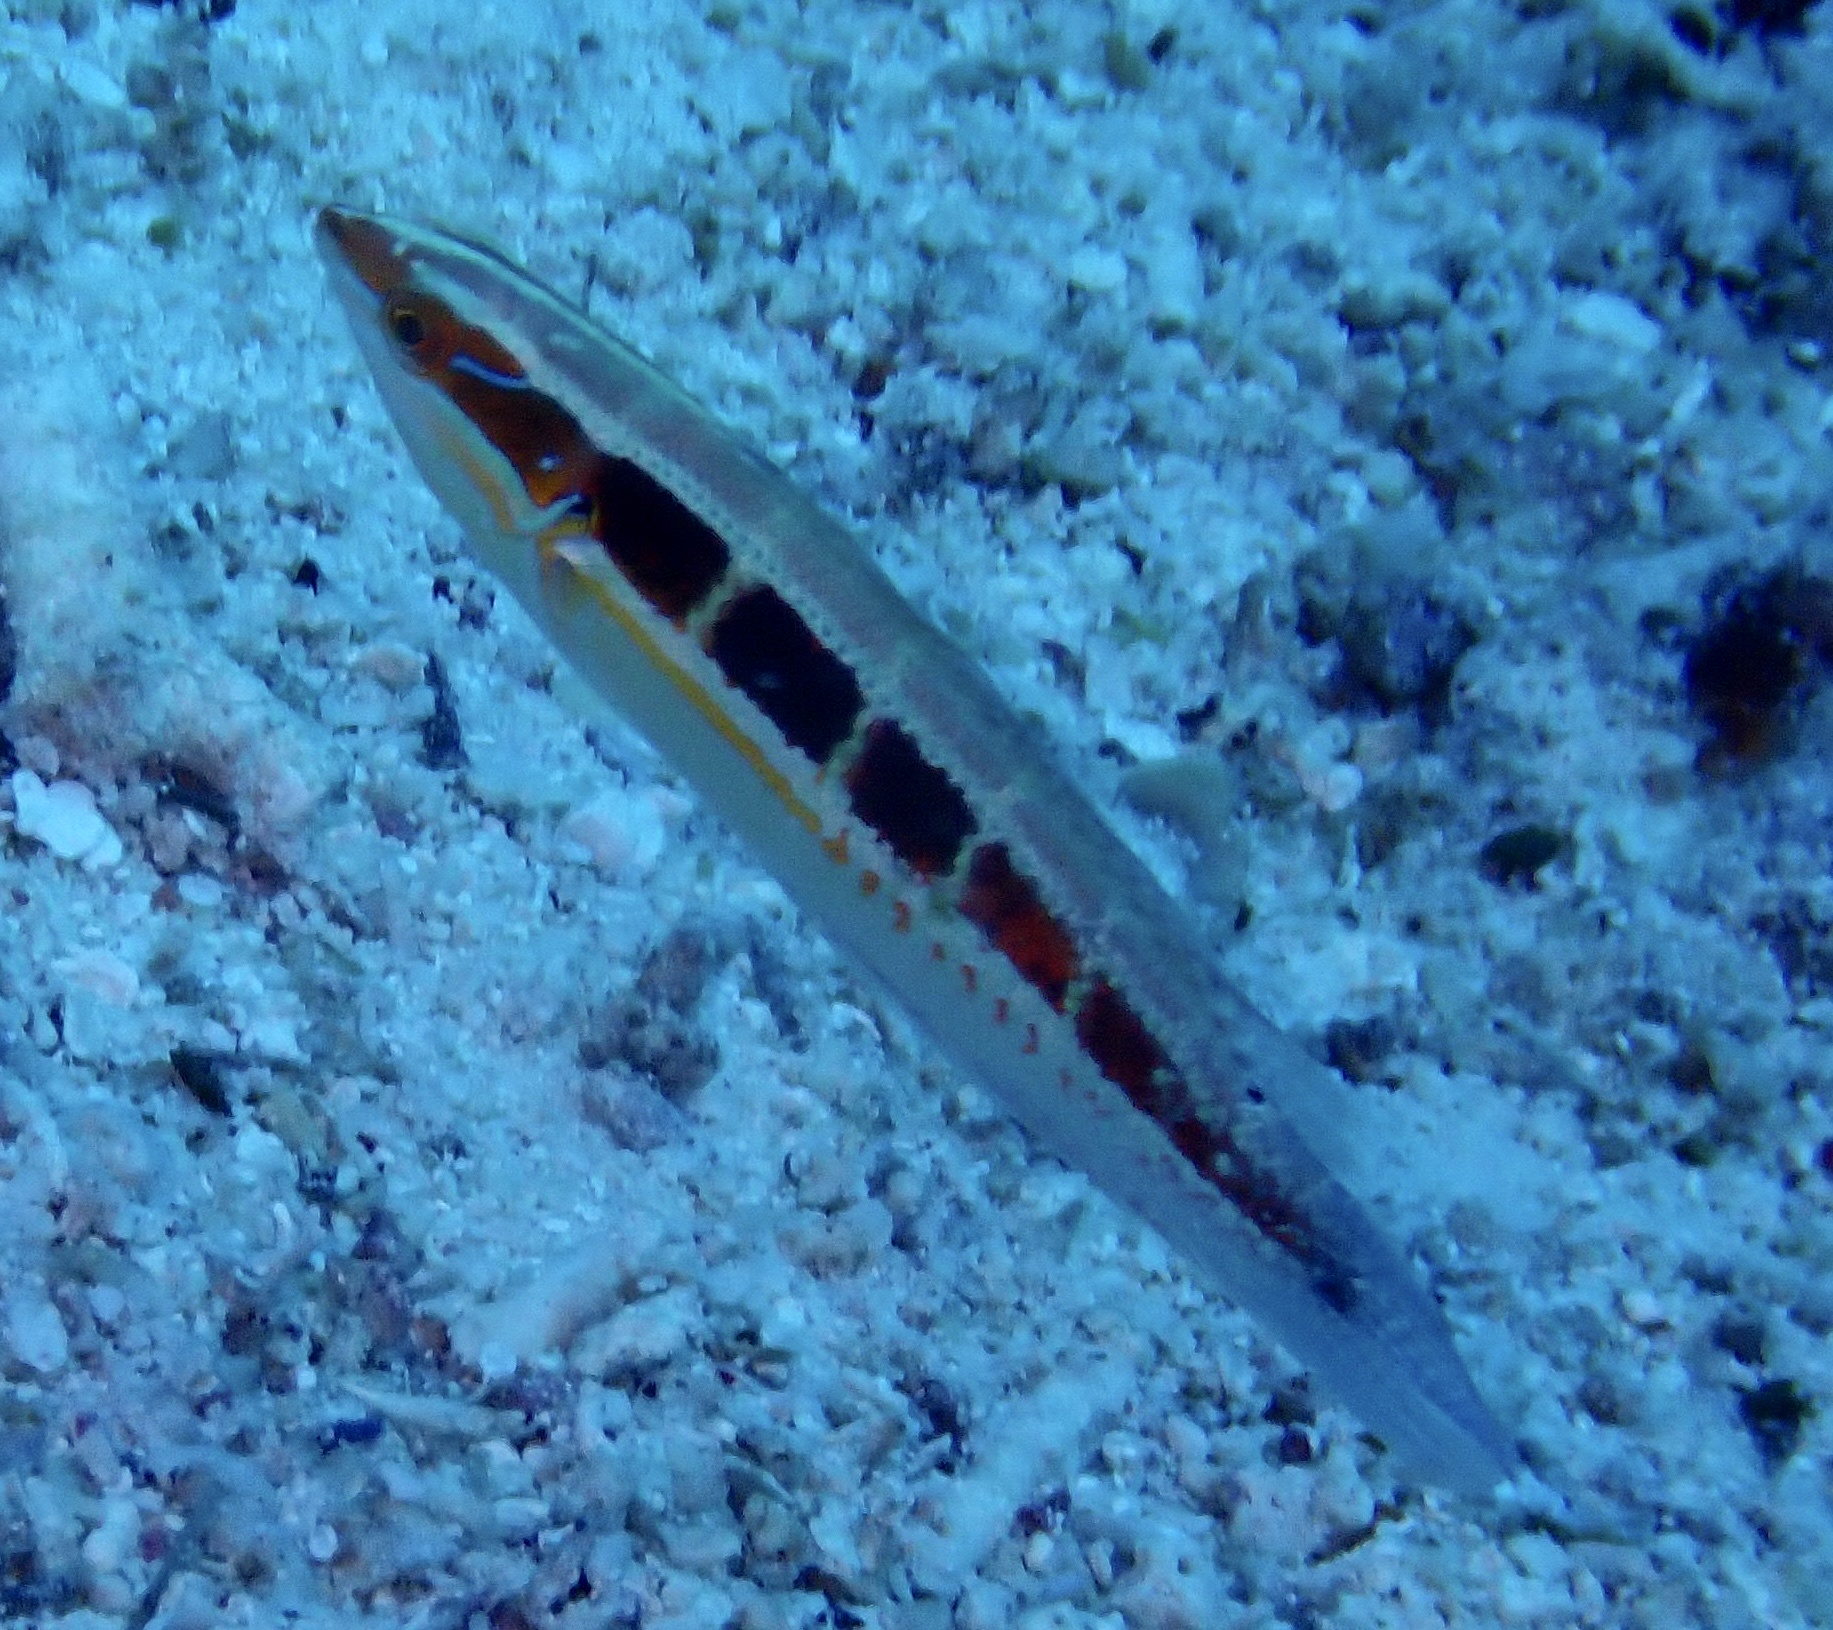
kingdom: Animalia
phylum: Chordata
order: Perciformes
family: Labridae
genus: Coris
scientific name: Coris caudimacula
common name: Spottail coris
